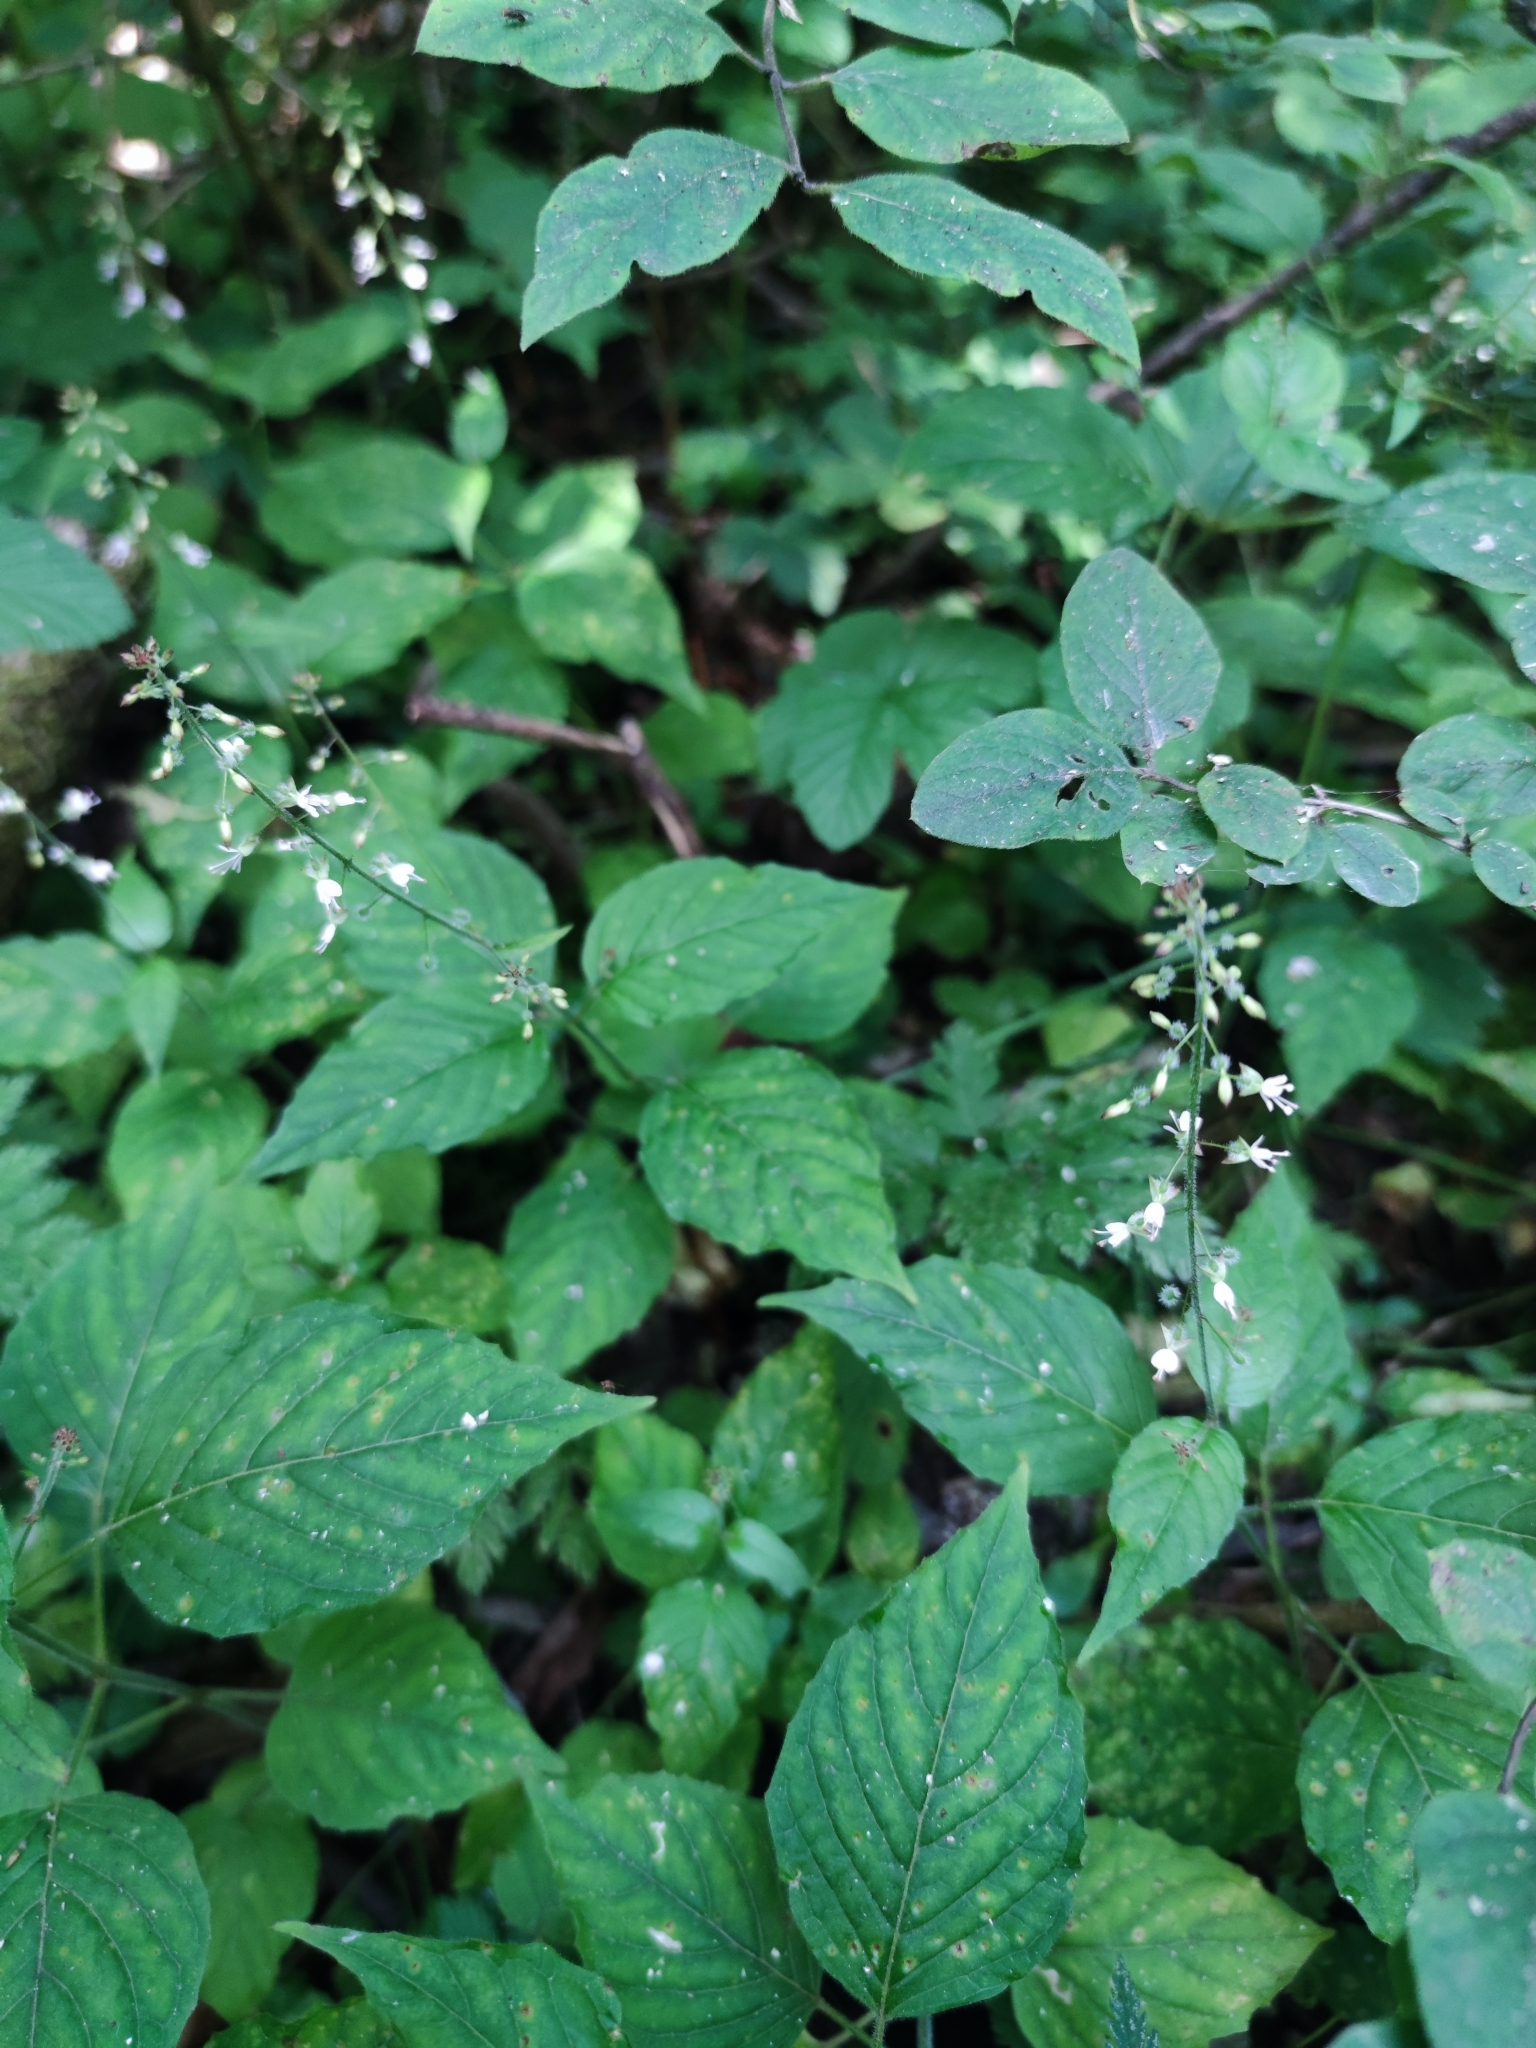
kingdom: Plantae
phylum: Tracheophyta
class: Magnoliopsida
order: Myrtales
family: Onagraceae
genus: Circaea
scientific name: Circaea lutetiana
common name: Enchanter's-nightshade
